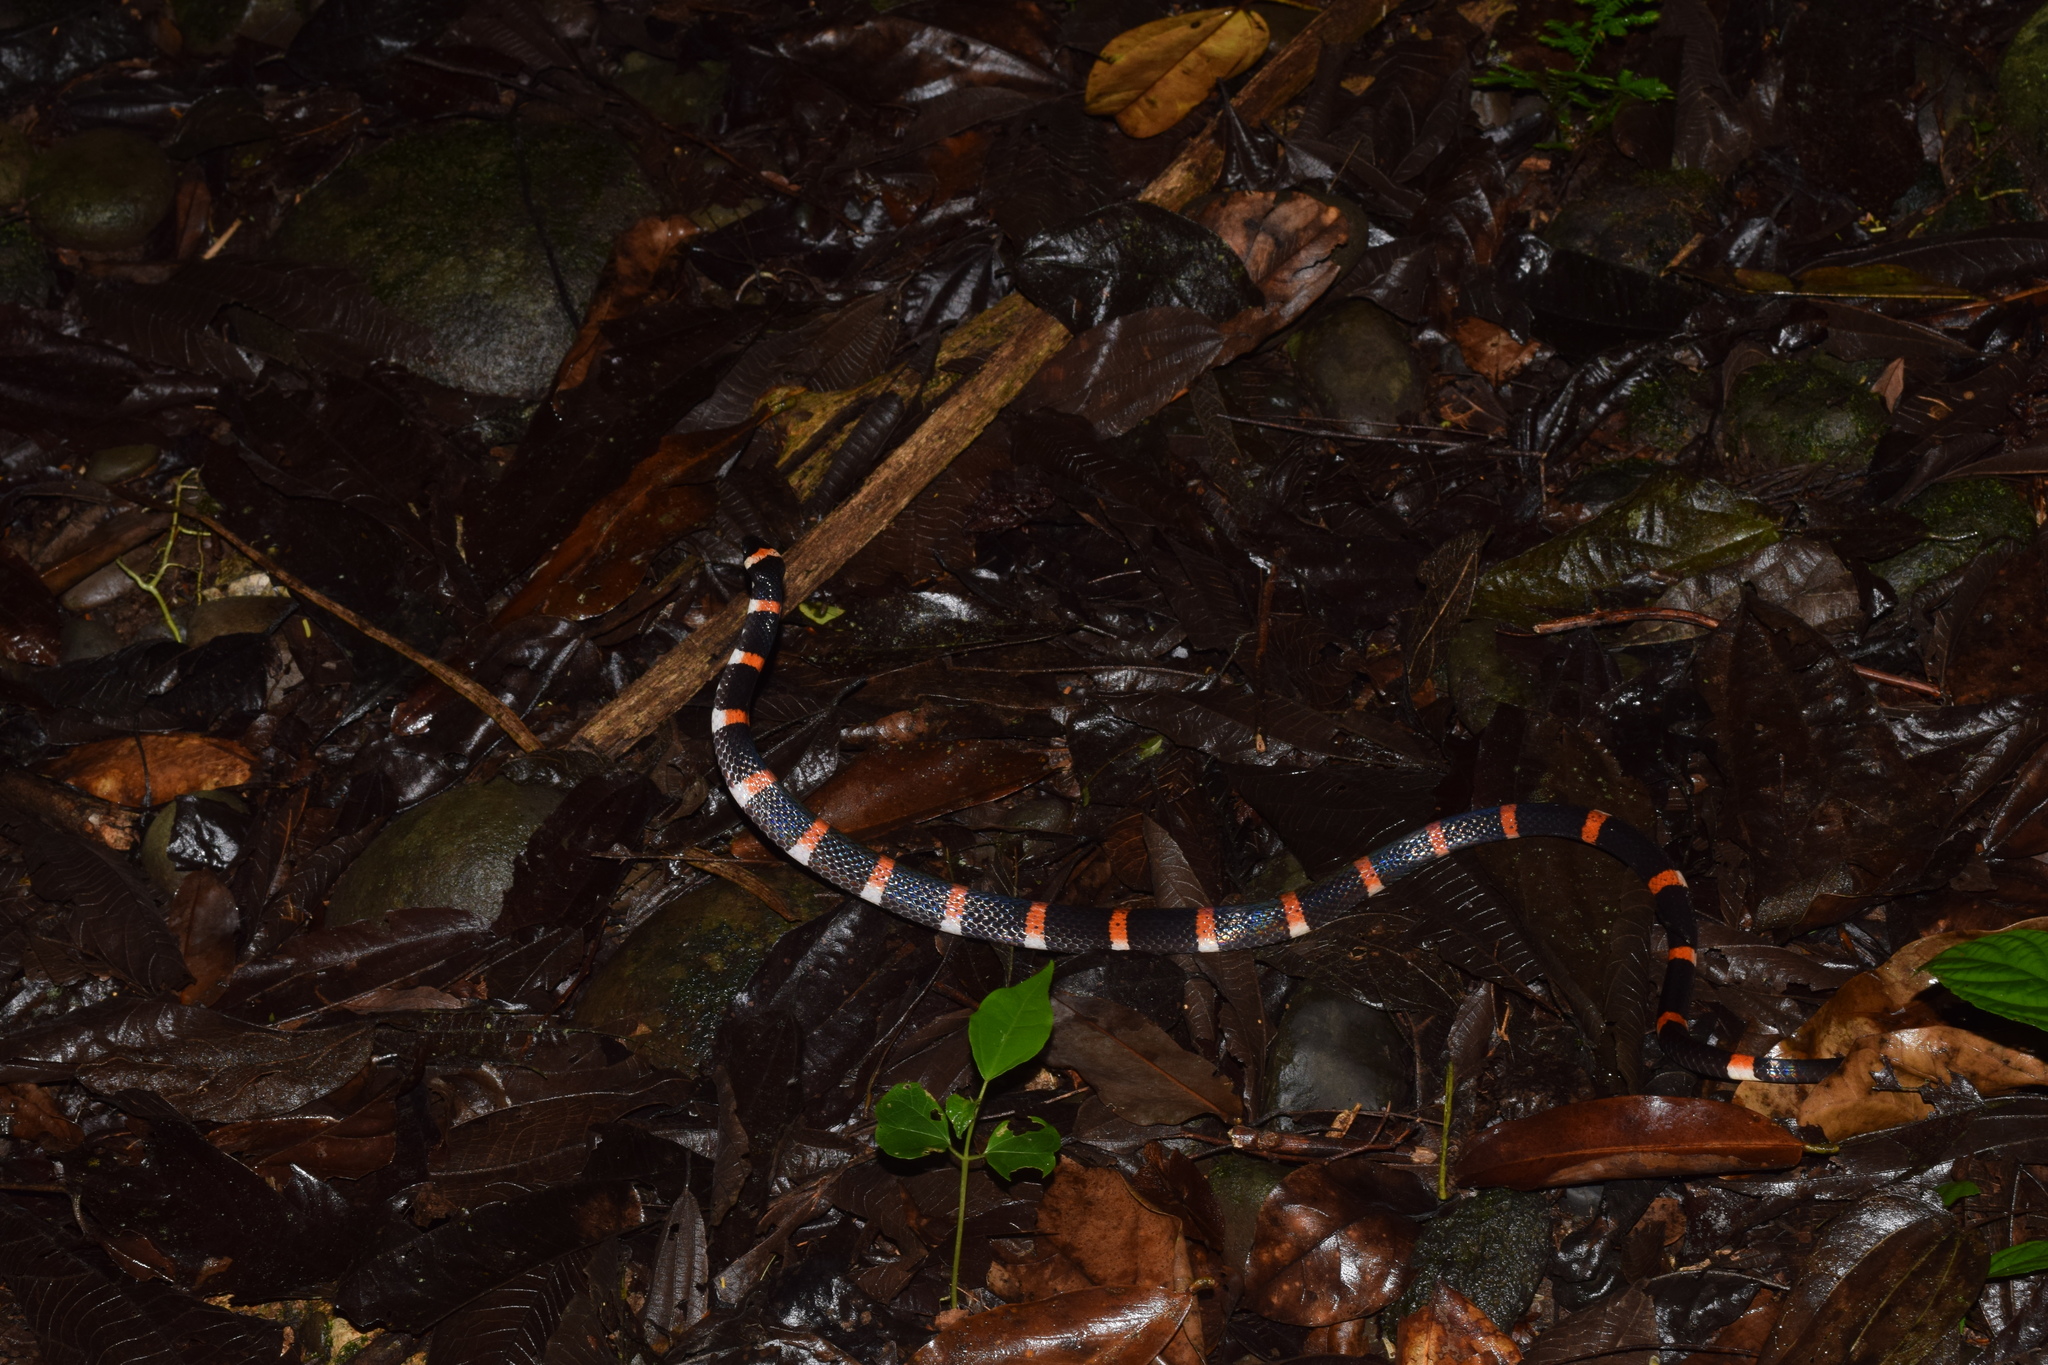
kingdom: Animalia
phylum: Chordata
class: Squamata
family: Colubridae
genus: Pliocercus
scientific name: Pliocercus euryzonus
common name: Cope's false coral snake
